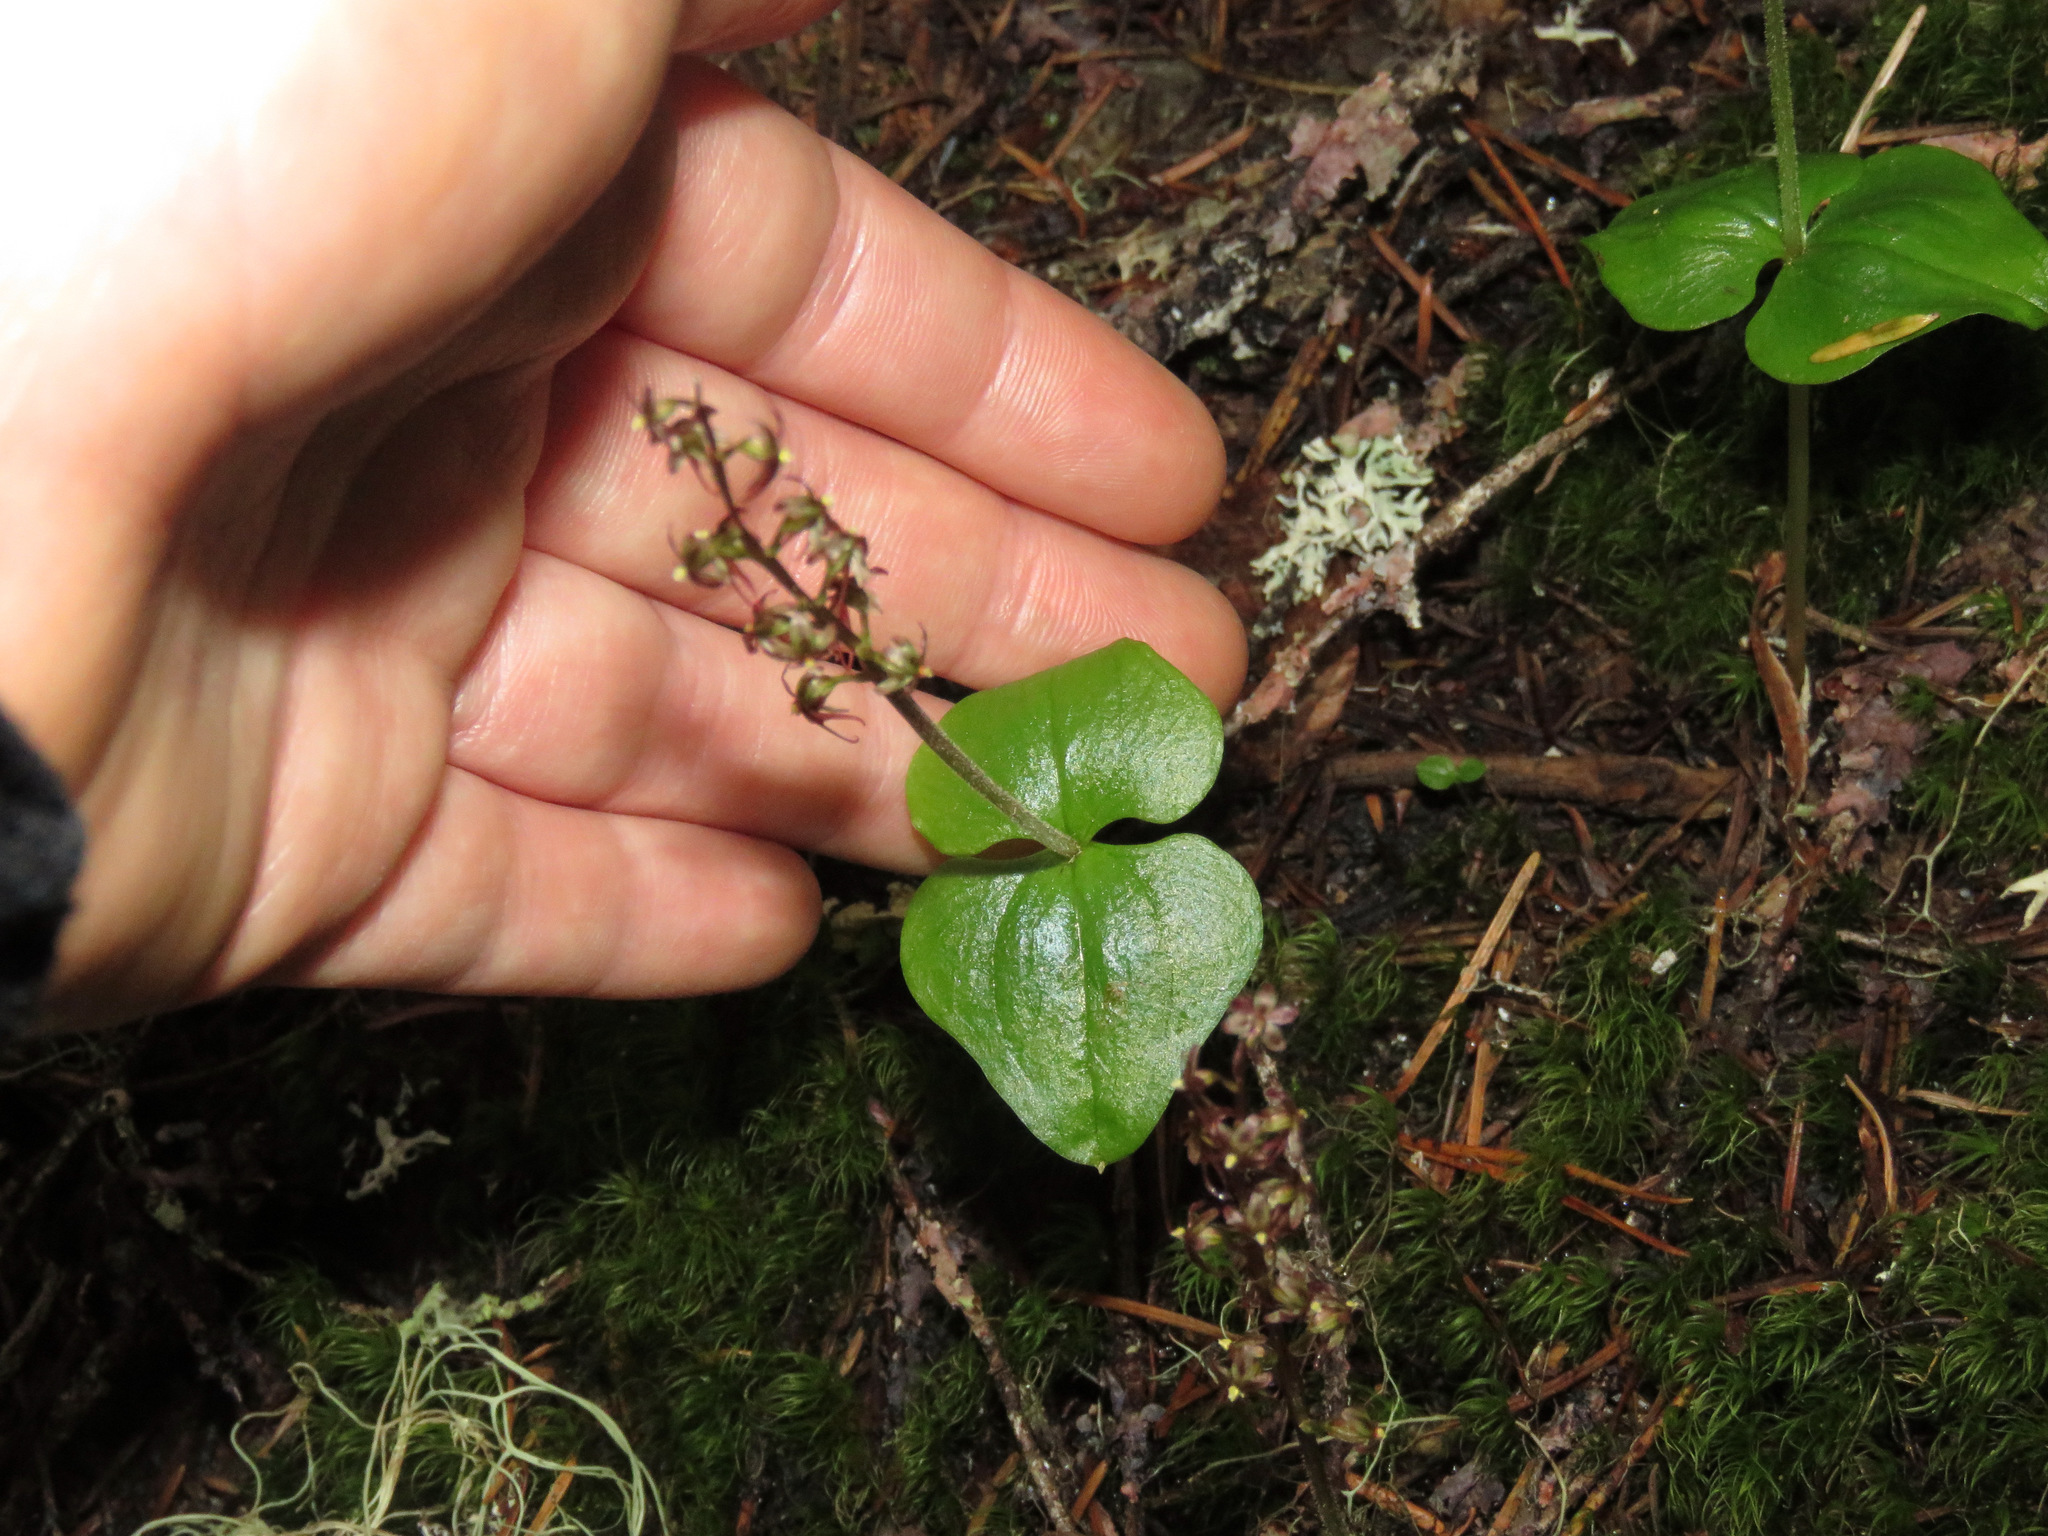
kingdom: Plantae
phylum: Tracheophyta
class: Liliopsida
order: Asparagales
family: Orchidaceae
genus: Neottia
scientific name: Neottia cordata
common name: Lesser twayblade
